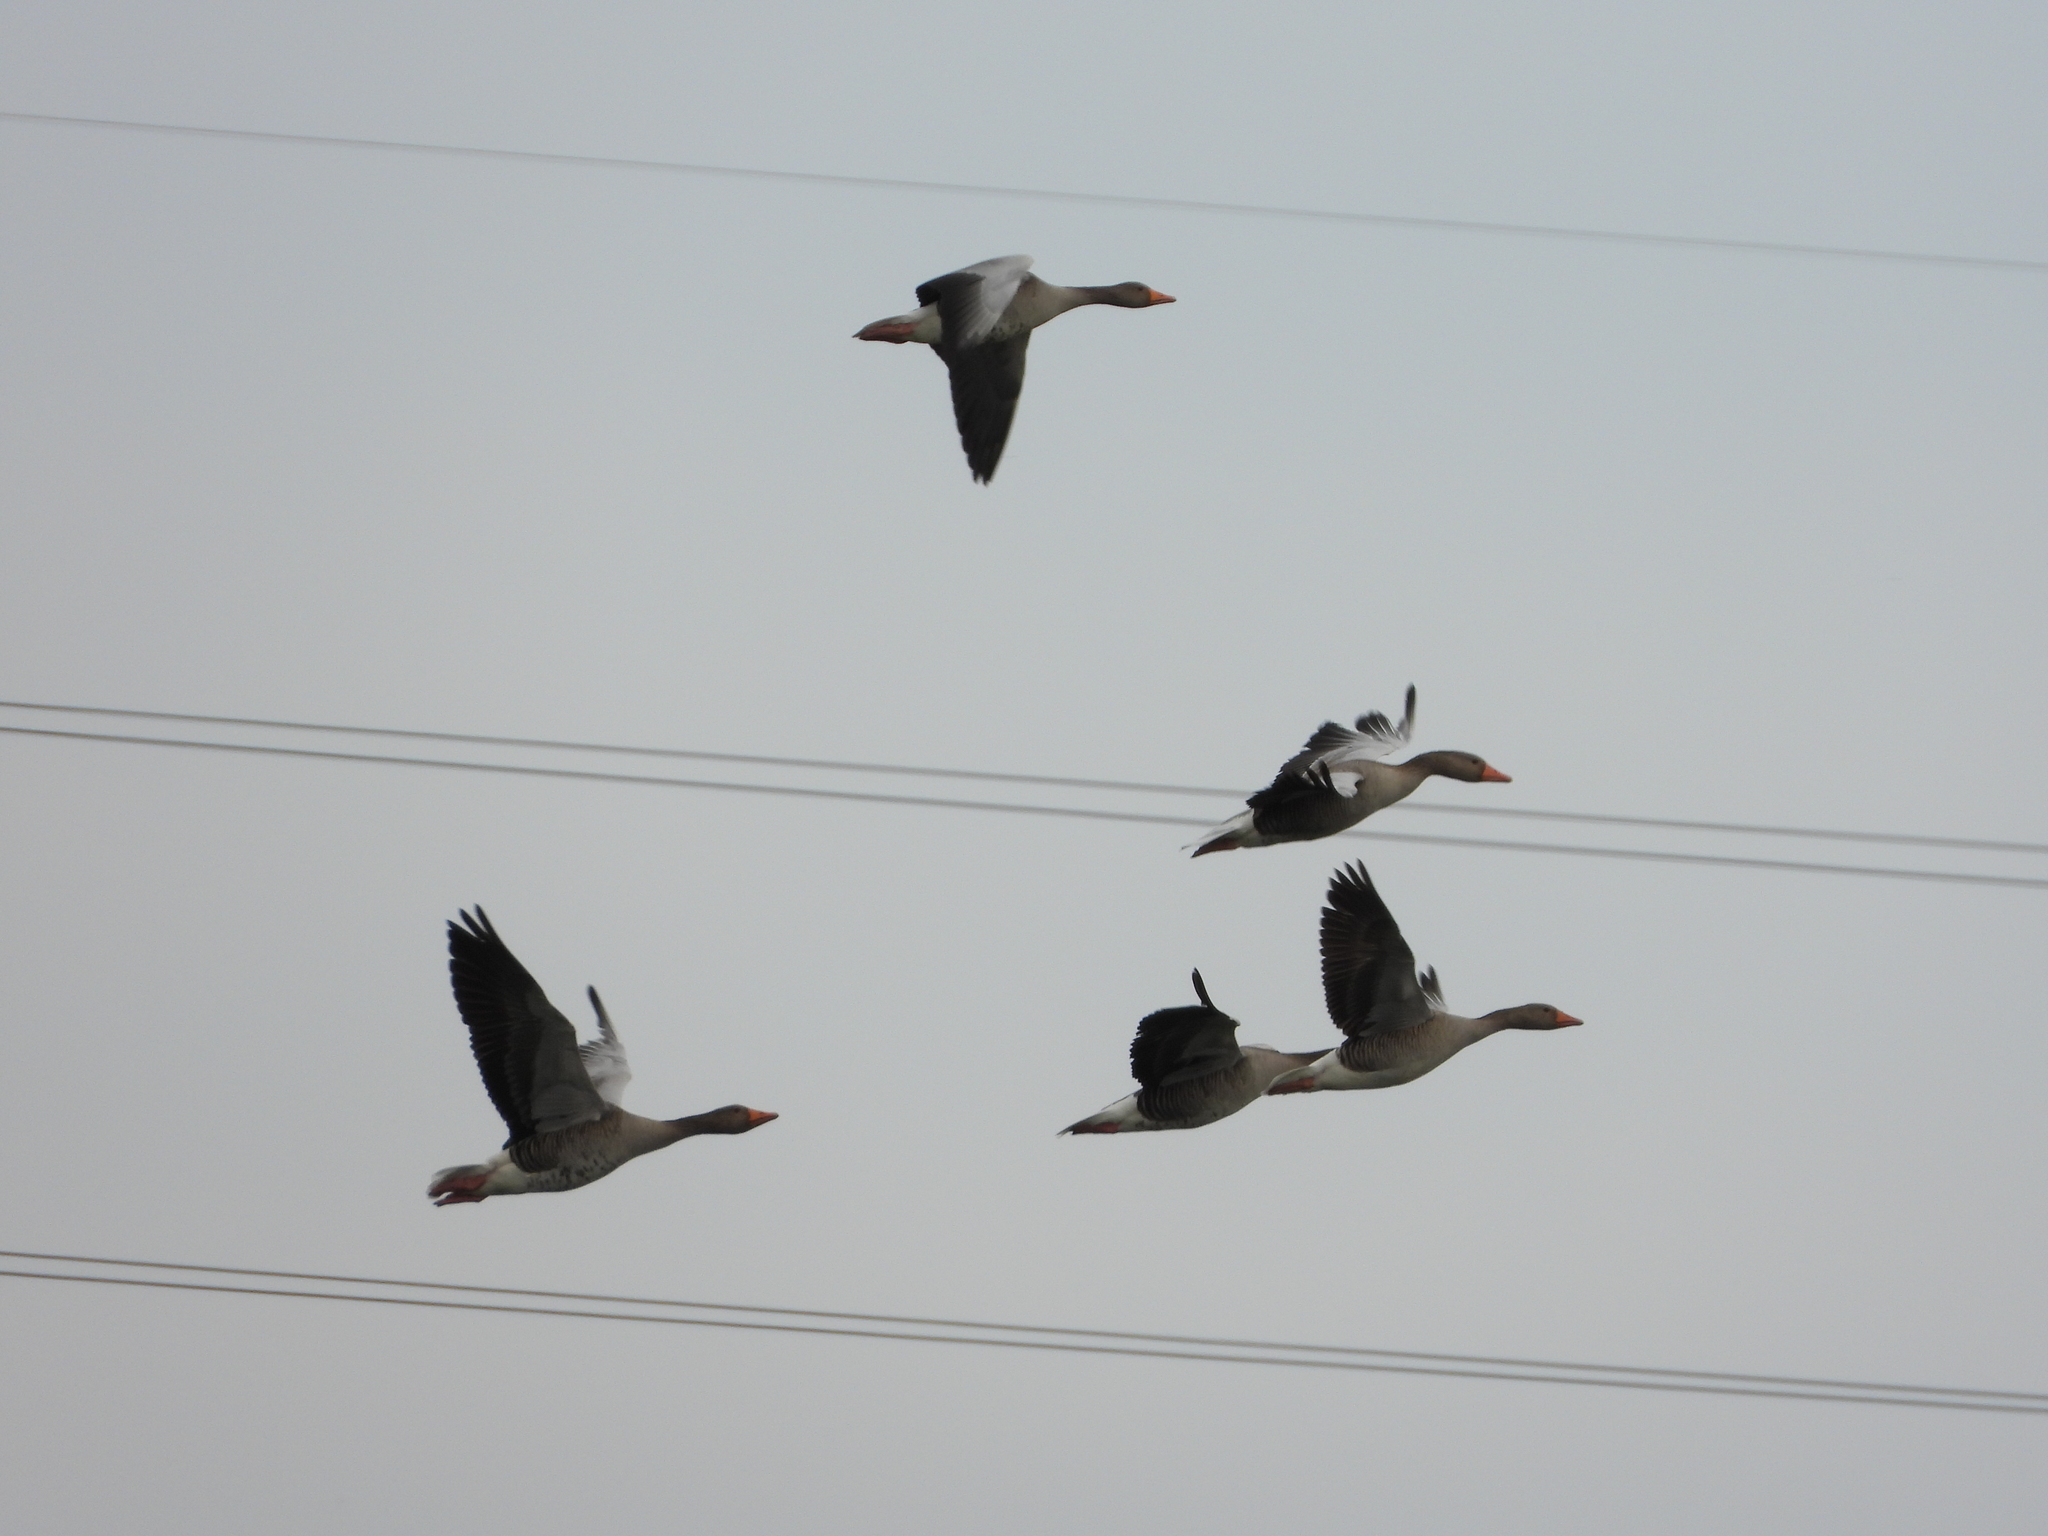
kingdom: Animalia
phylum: Chordata
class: Aves
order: Anseriformes
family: Anatidae
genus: Anser
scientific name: Anser anser
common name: Greylag goose
